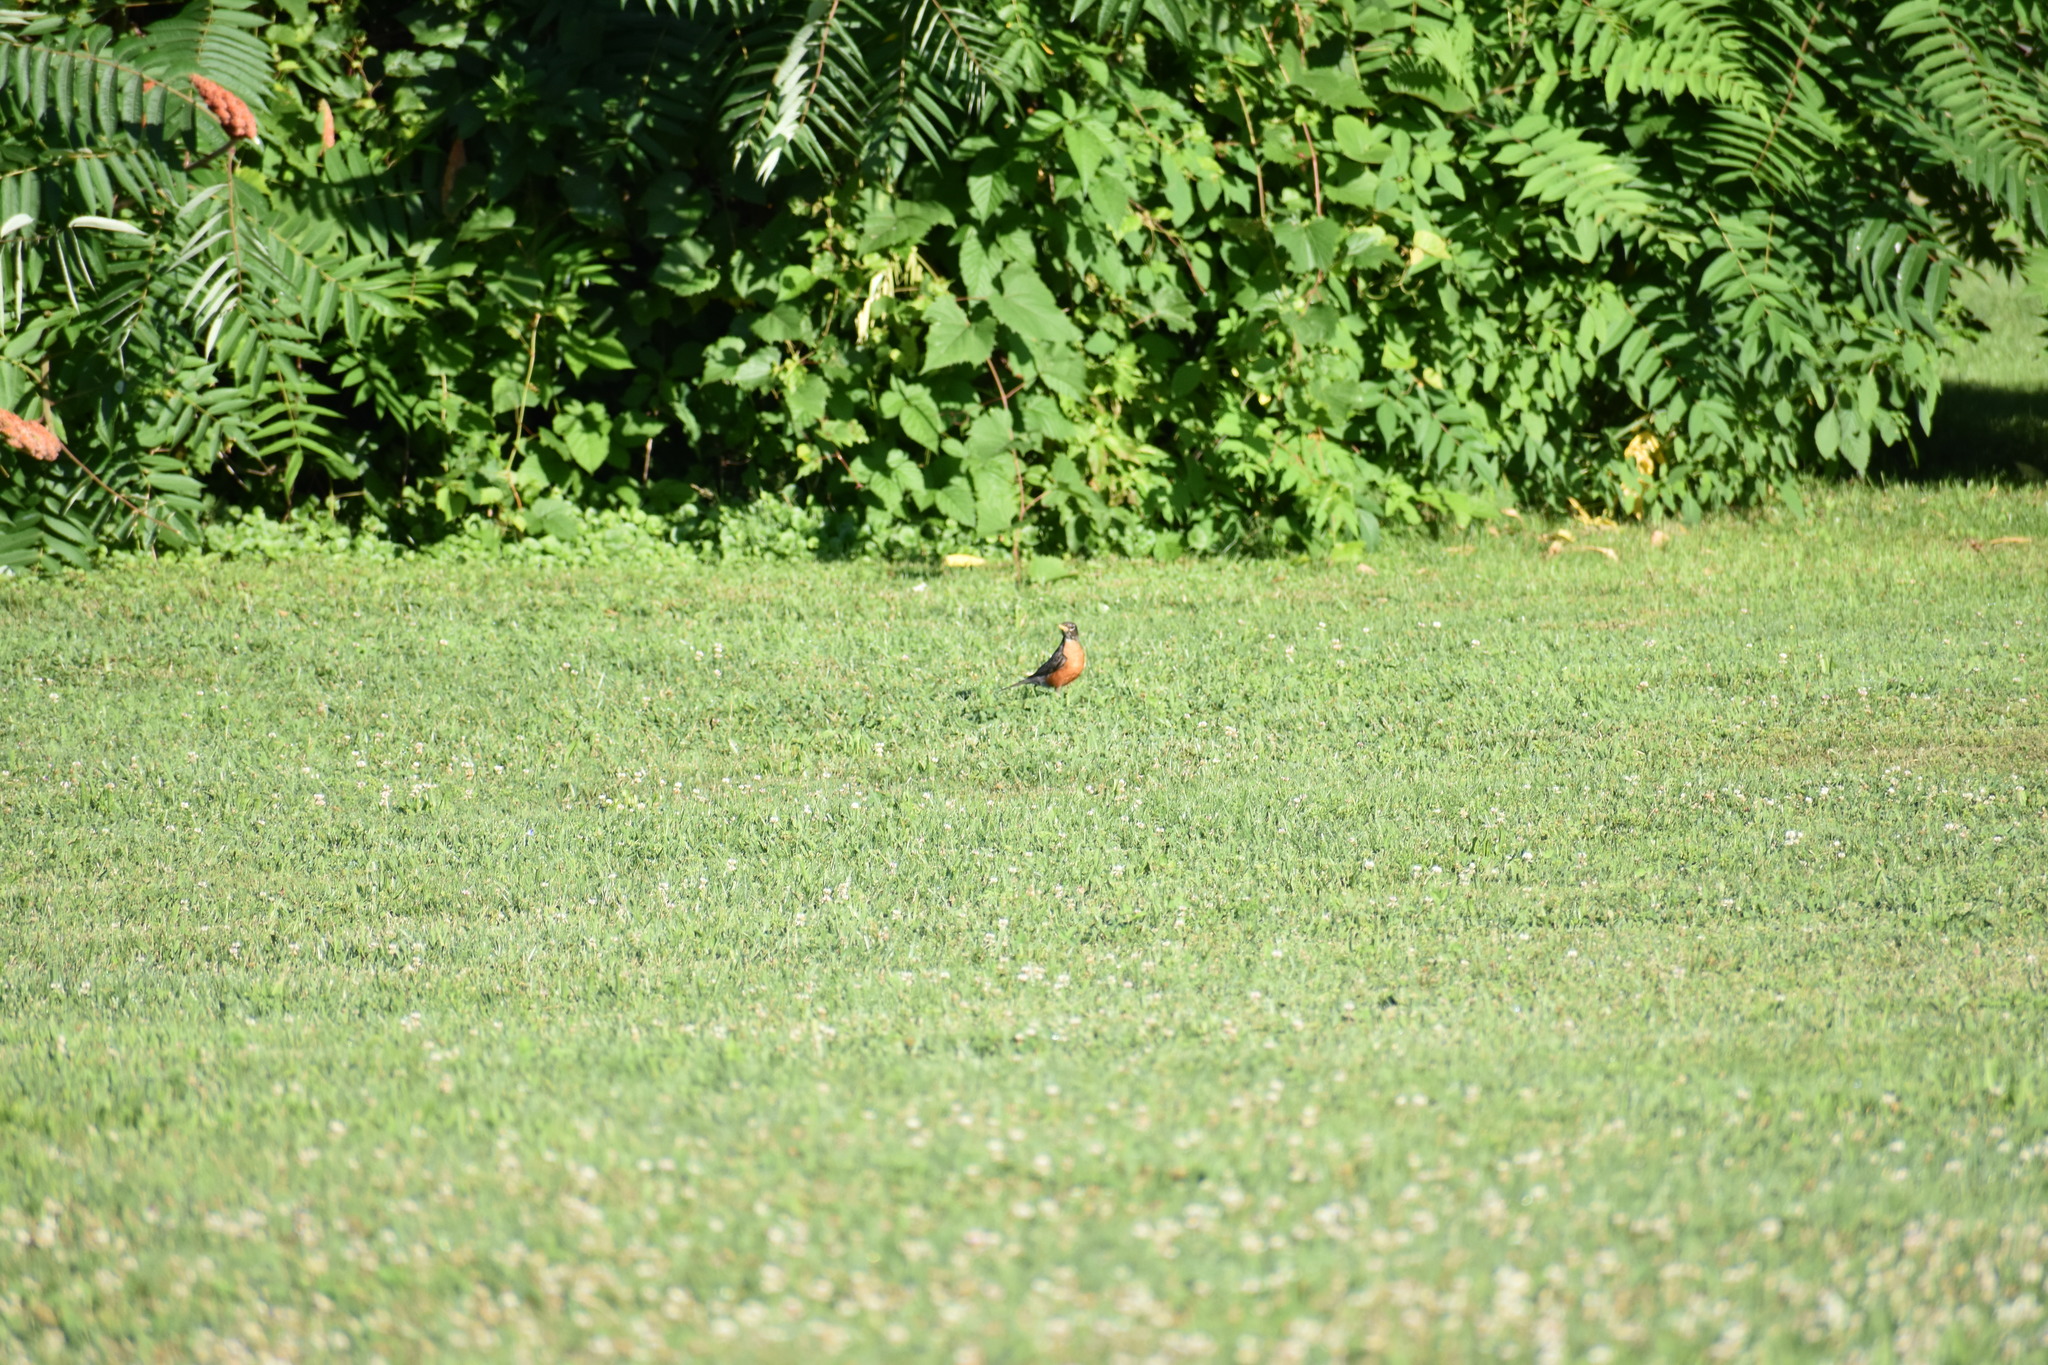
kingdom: Animalia
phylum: Chordata
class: Aves
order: Passeriformes
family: Turdidae
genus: Turdus
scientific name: Turdus migratorius
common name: American robin
